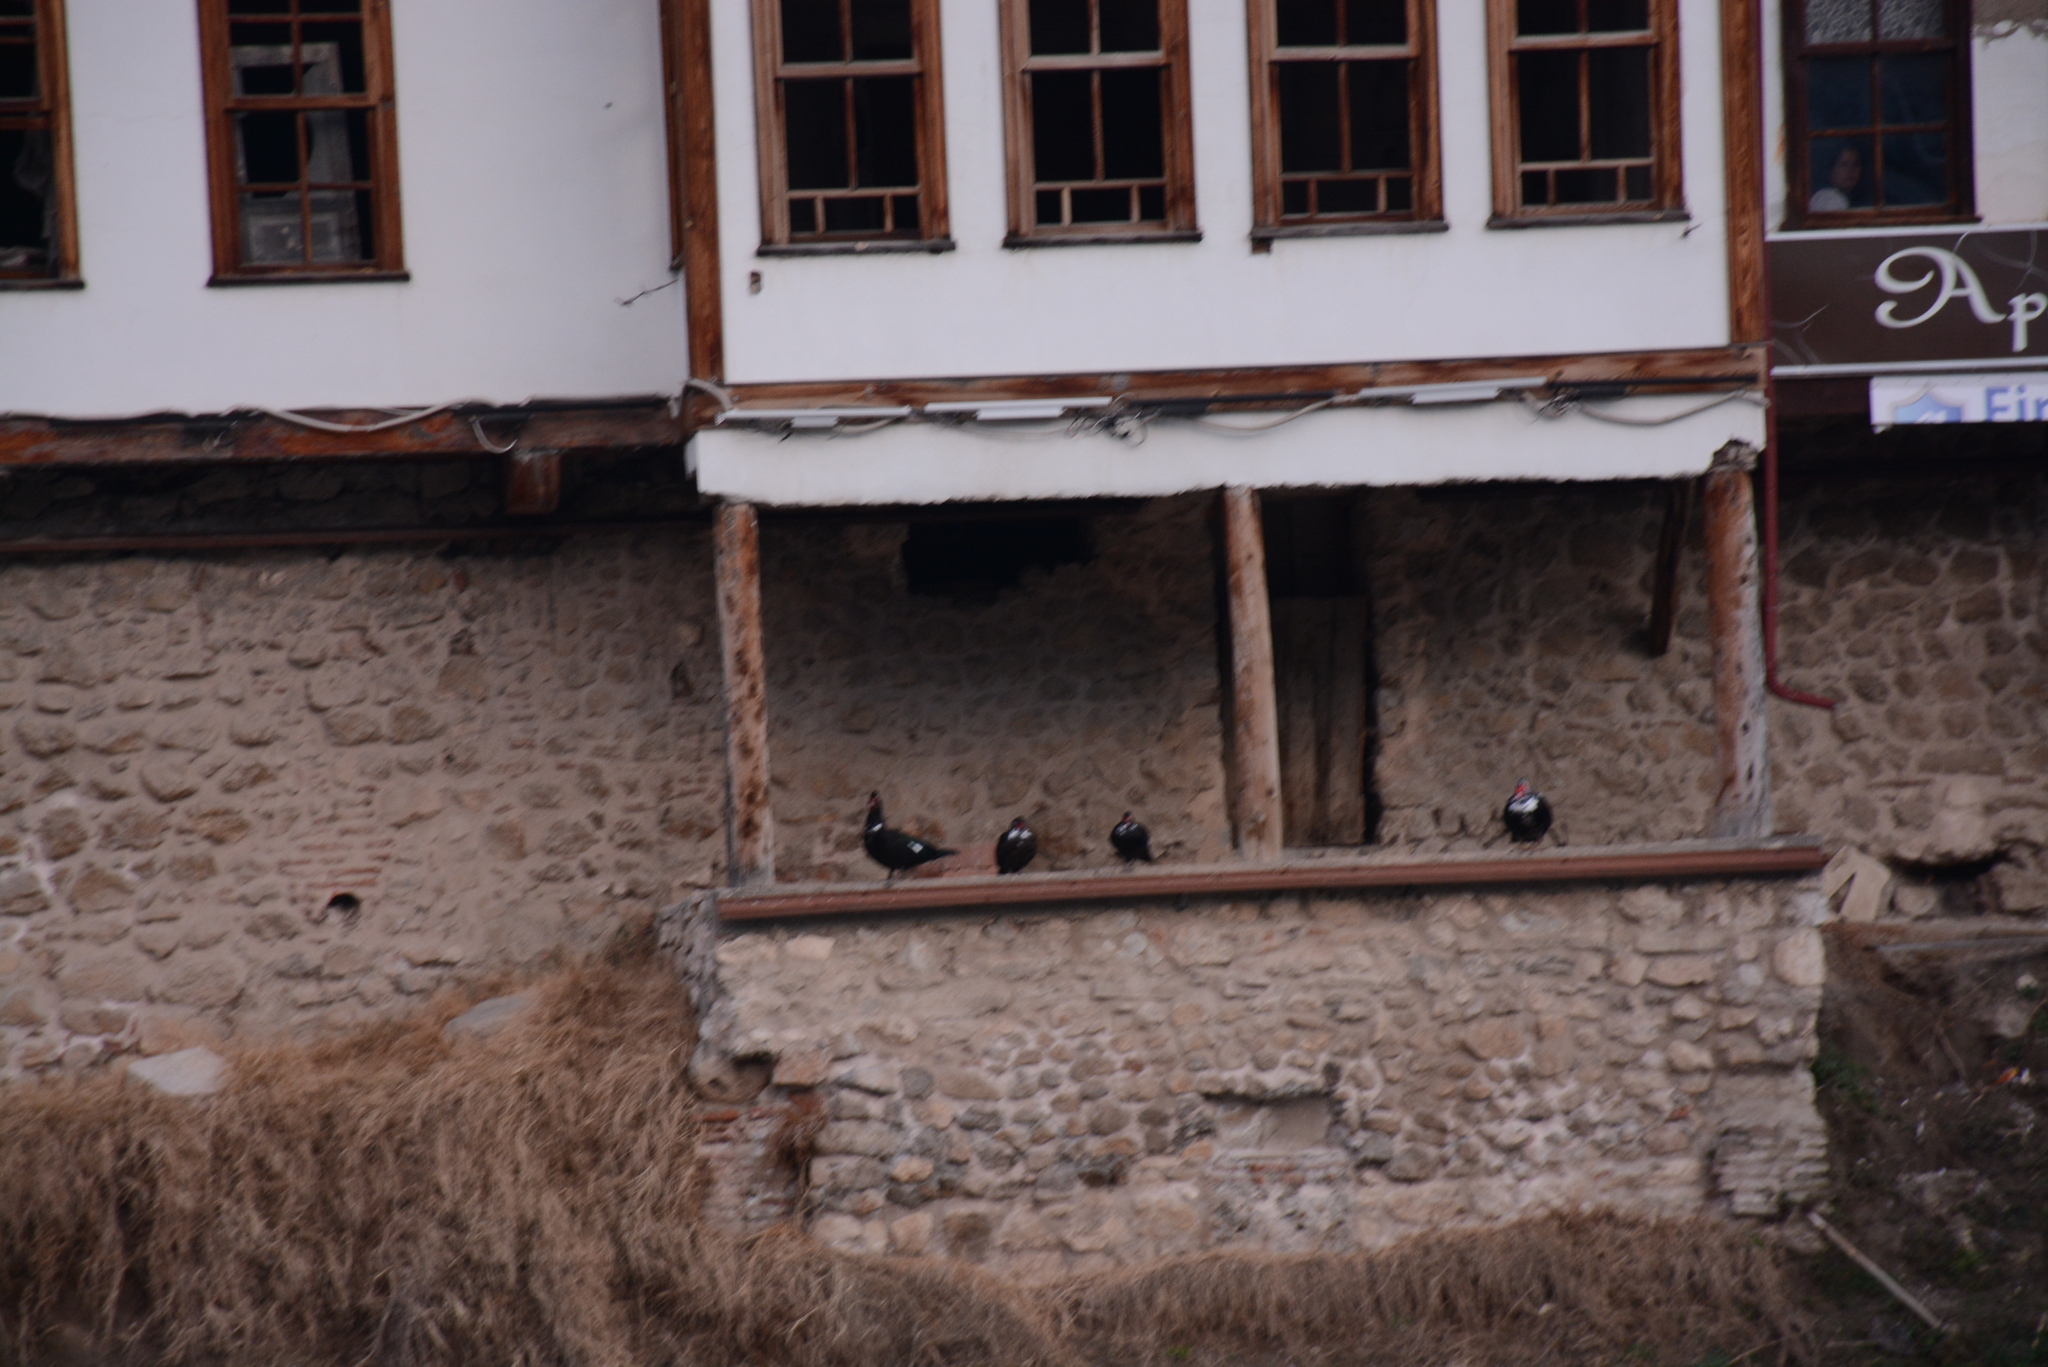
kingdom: Animalia
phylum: Chordata
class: Aves
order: Anseriformes
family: Anatidae
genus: Cairina
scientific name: Cairina moschata
